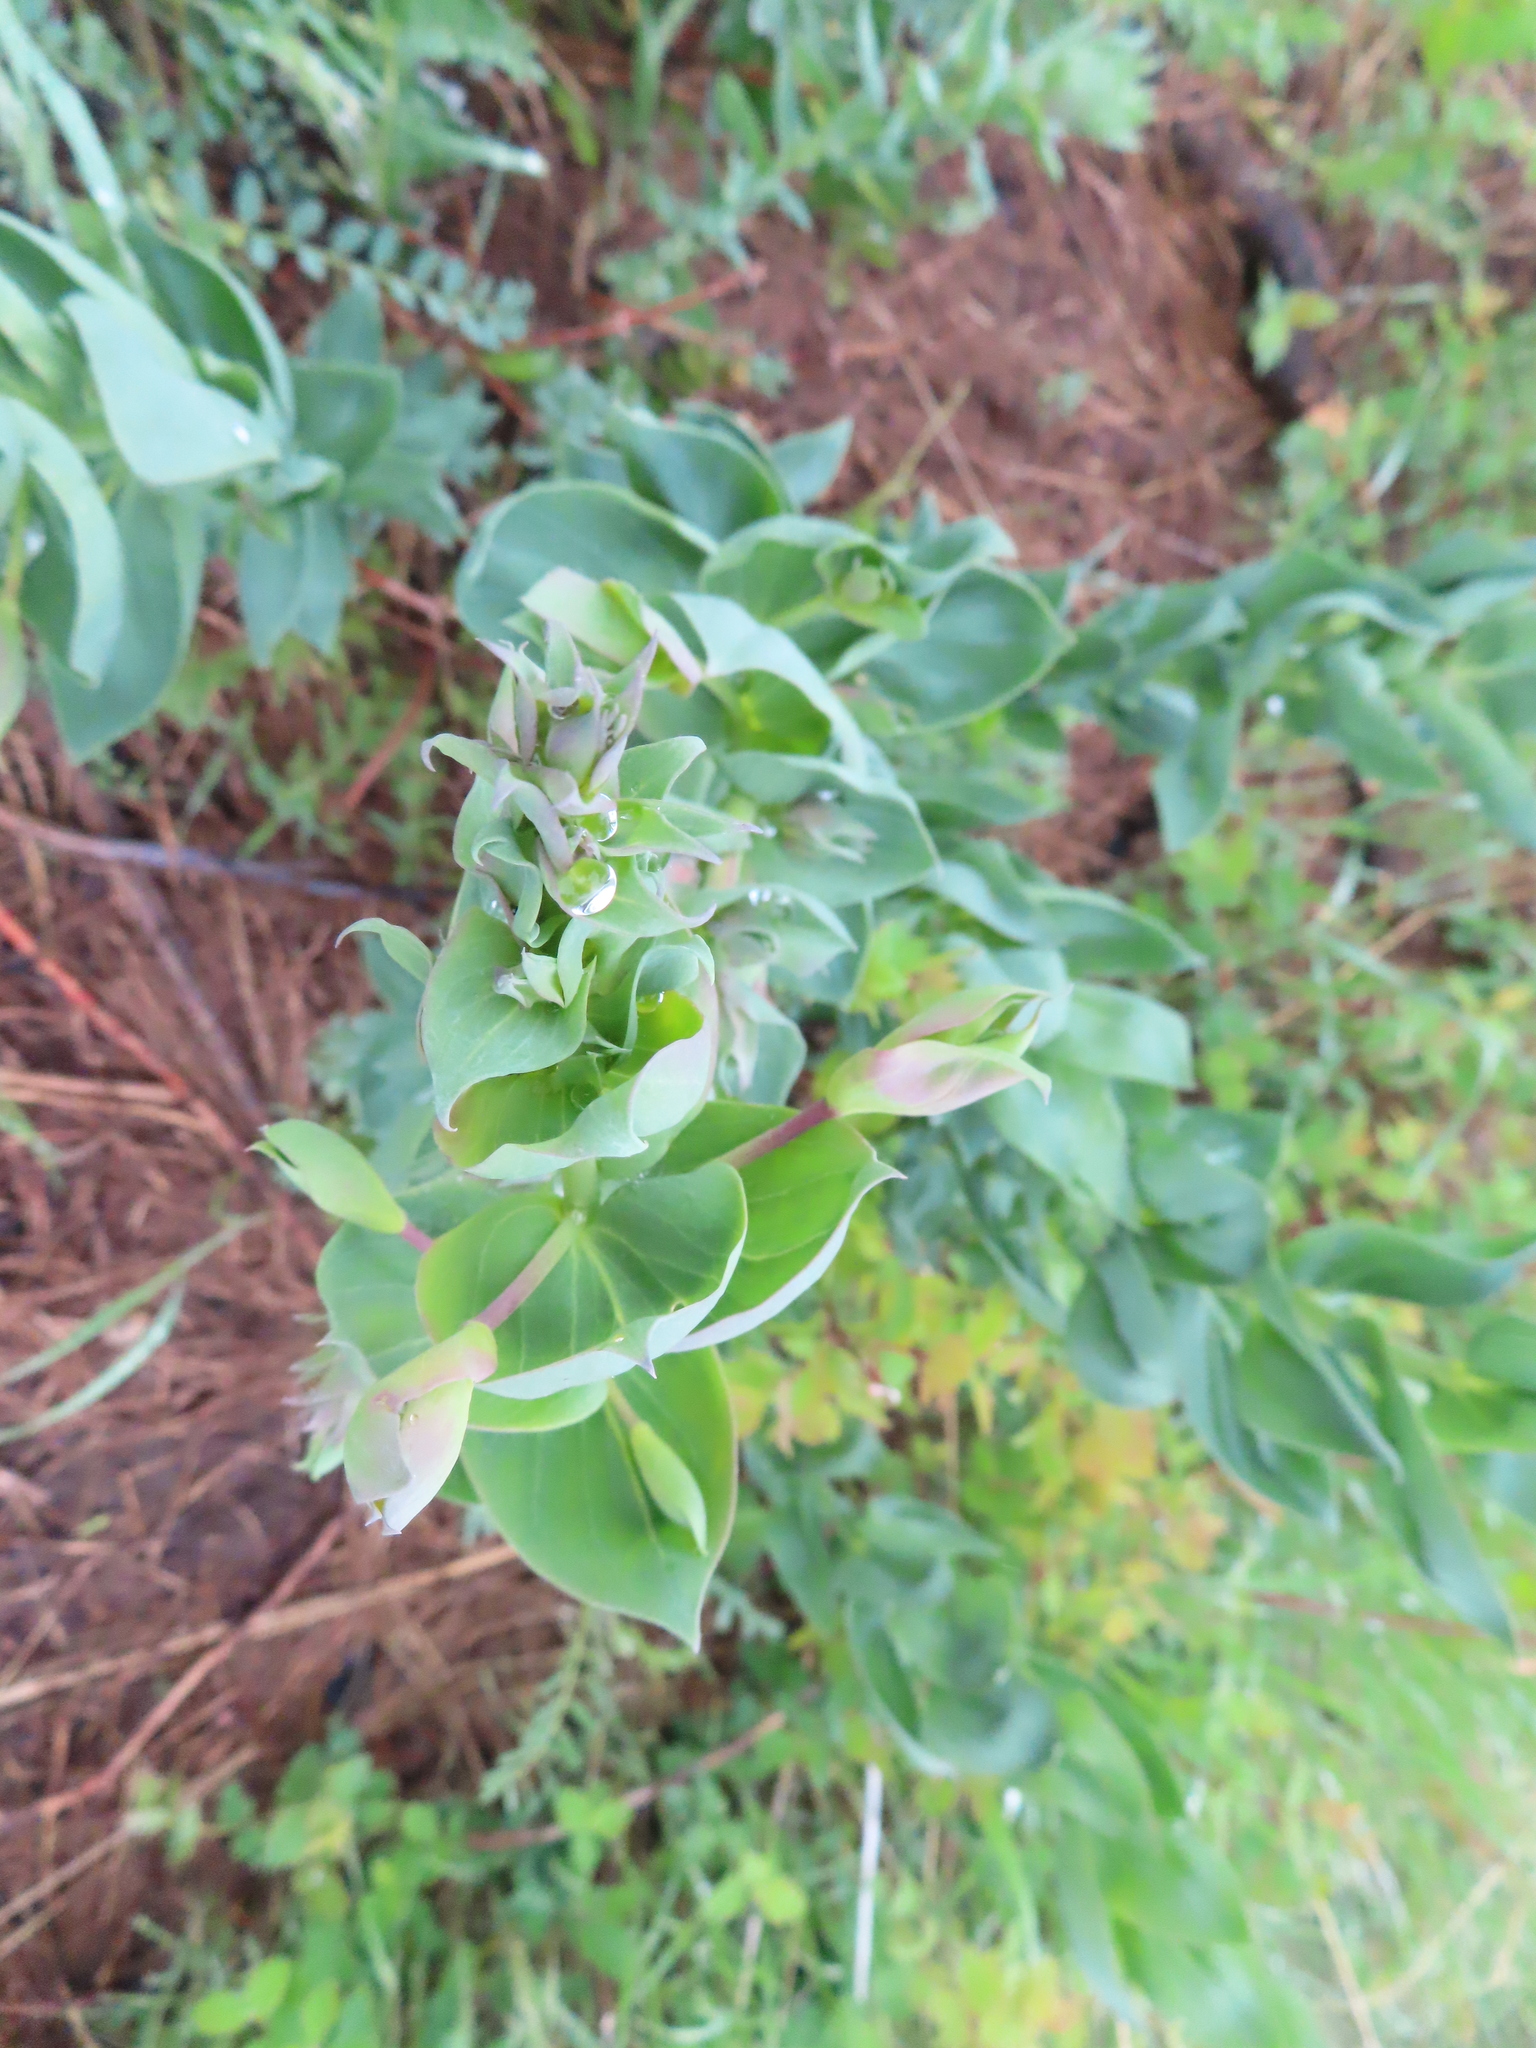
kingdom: Plantae
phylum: Tracheophyta
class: Magnoliopsida
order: Lamiales
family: Plantaginaceae
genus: Linaria
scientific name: Linaria dalmatica
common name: Dalmatian toadflax
